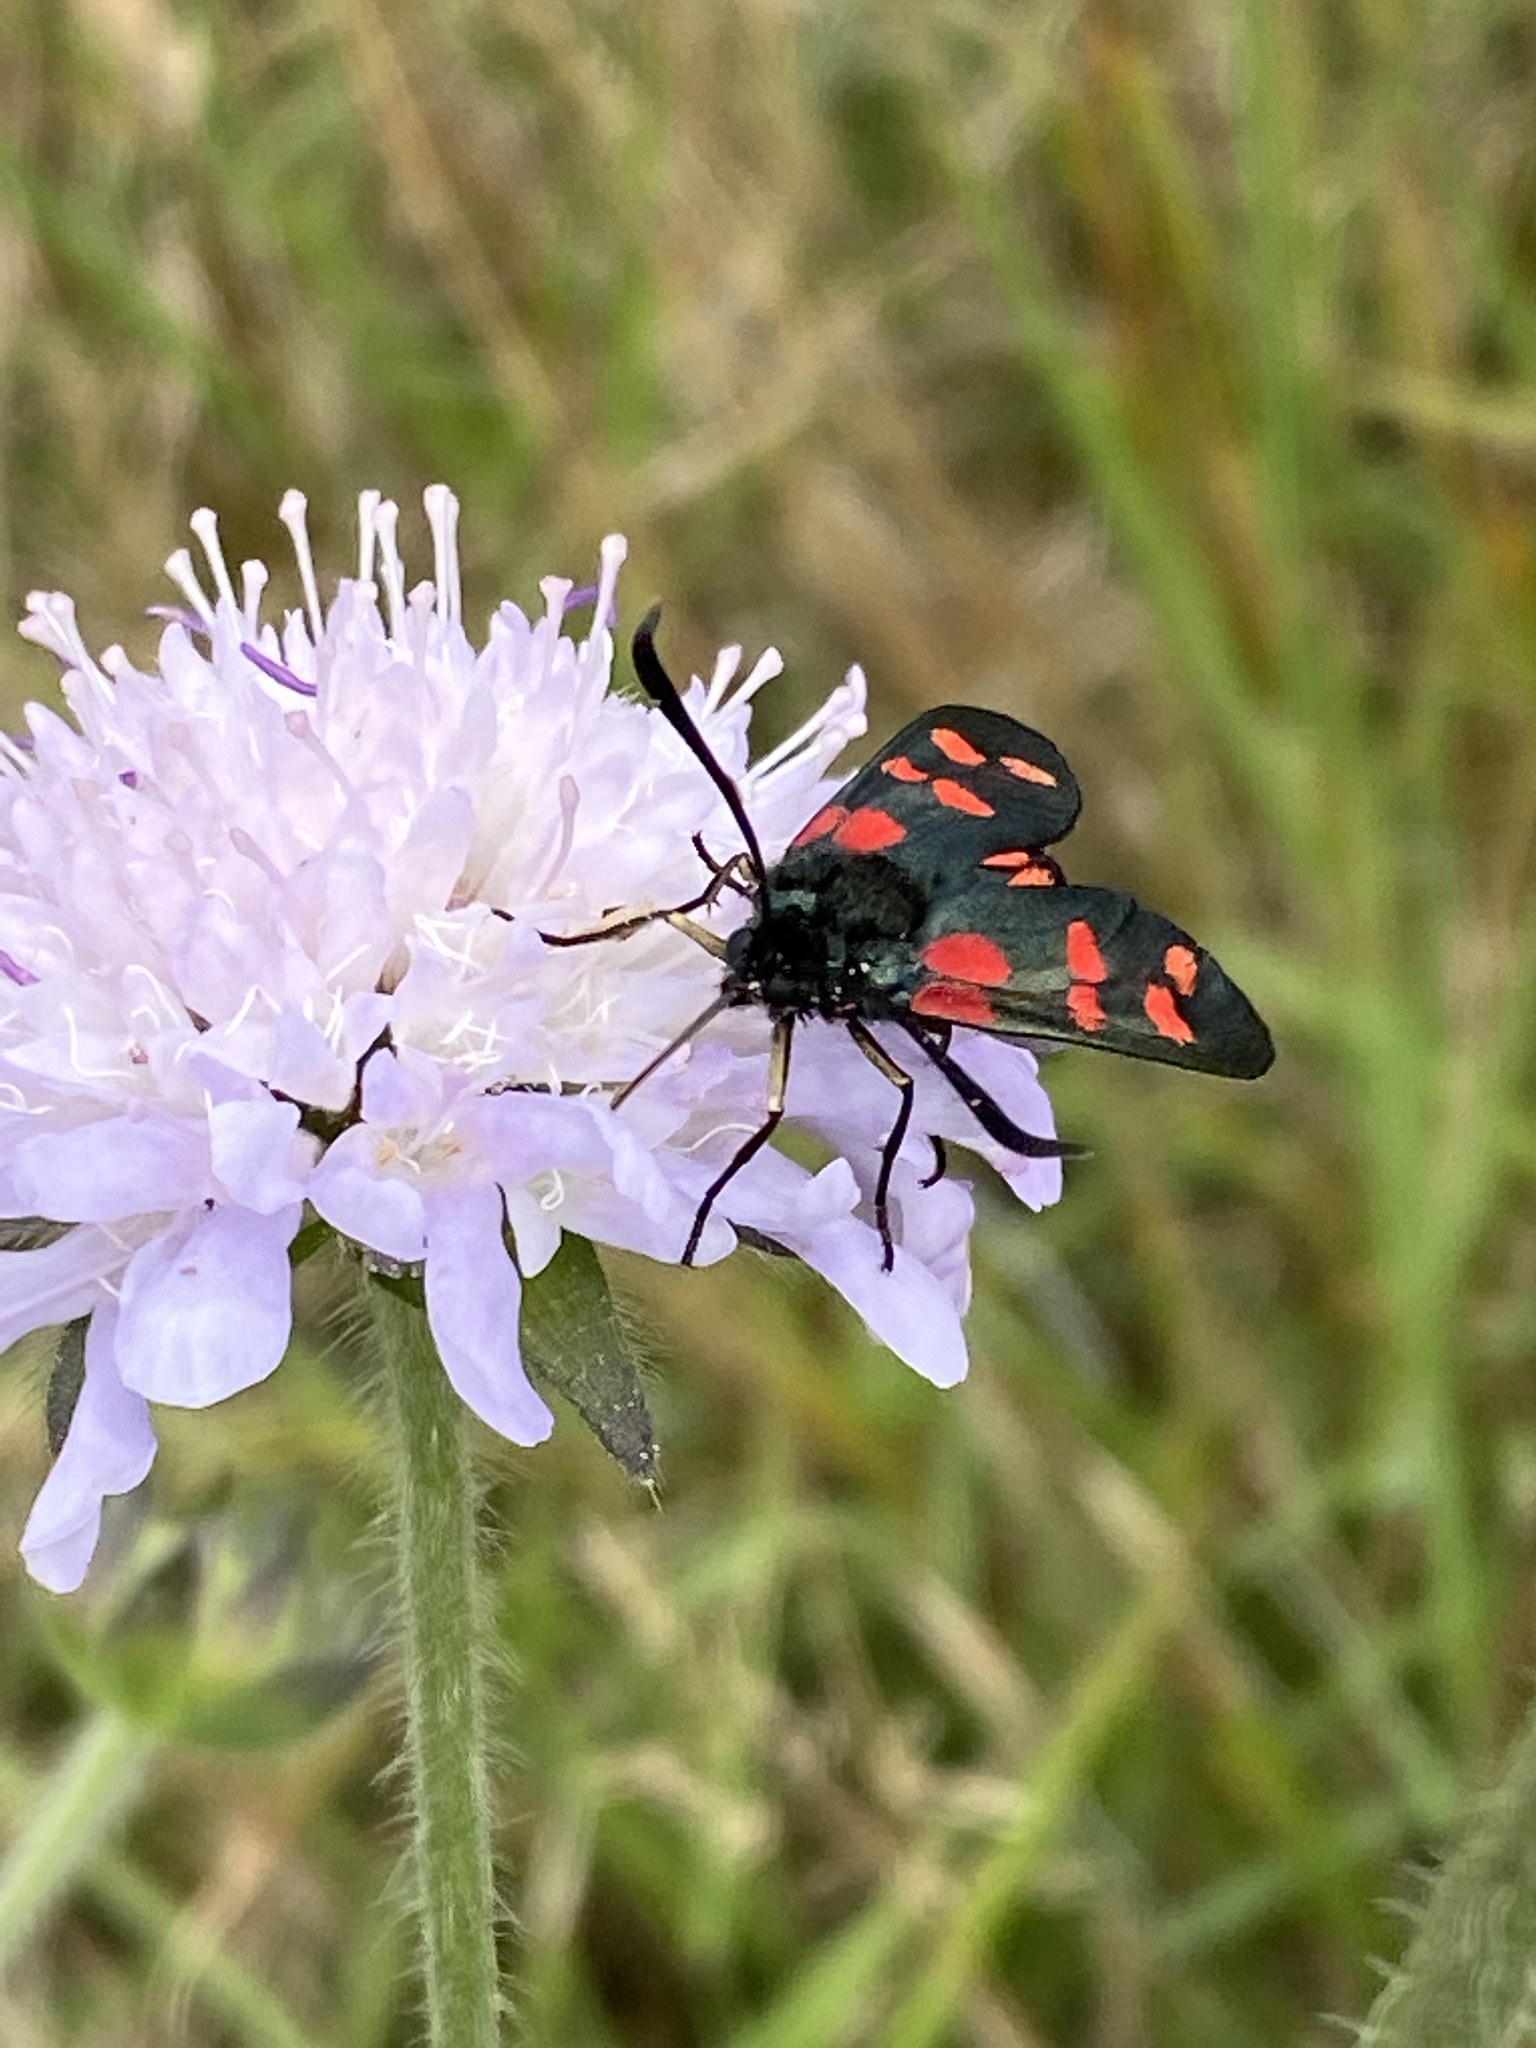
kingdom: Animalia
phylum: Arthropoda
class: Insecta
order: Lepidoptera
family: Zygaenidae
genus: Zygaena
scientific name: Zygaena filipendulae
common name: Six-spot burnet
